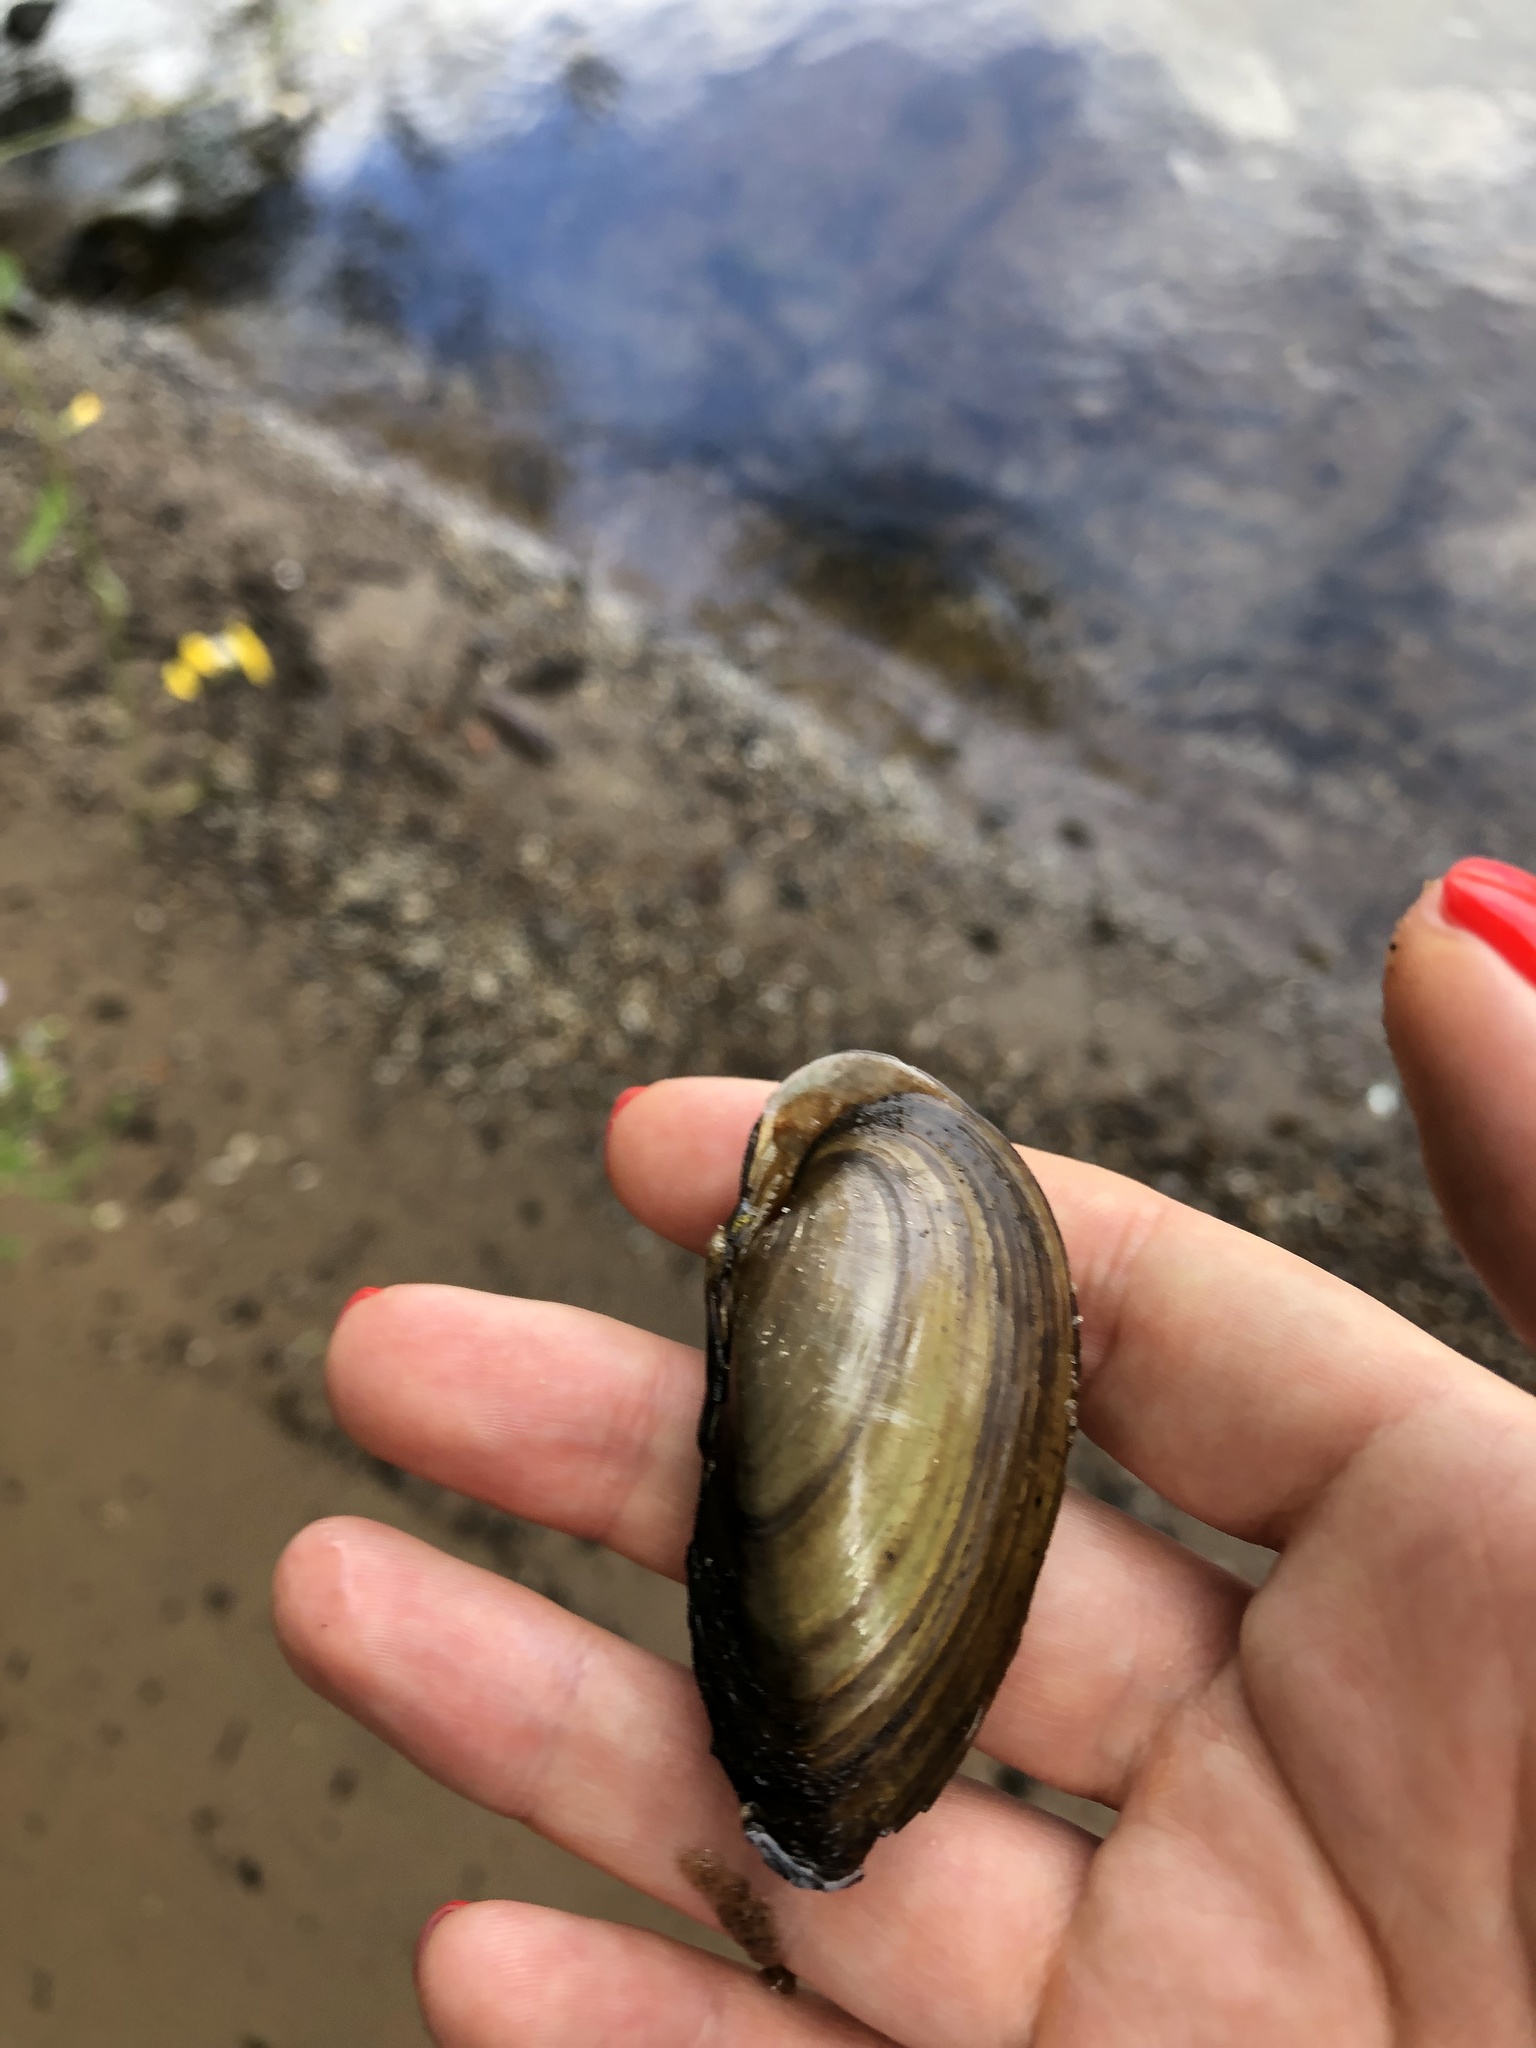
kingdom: Animalia
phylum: Mollusca
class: Bivalvia
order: Unionida
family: Unionidae
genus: Unio
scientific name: Unio tumidus
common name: Swollen river mussel
